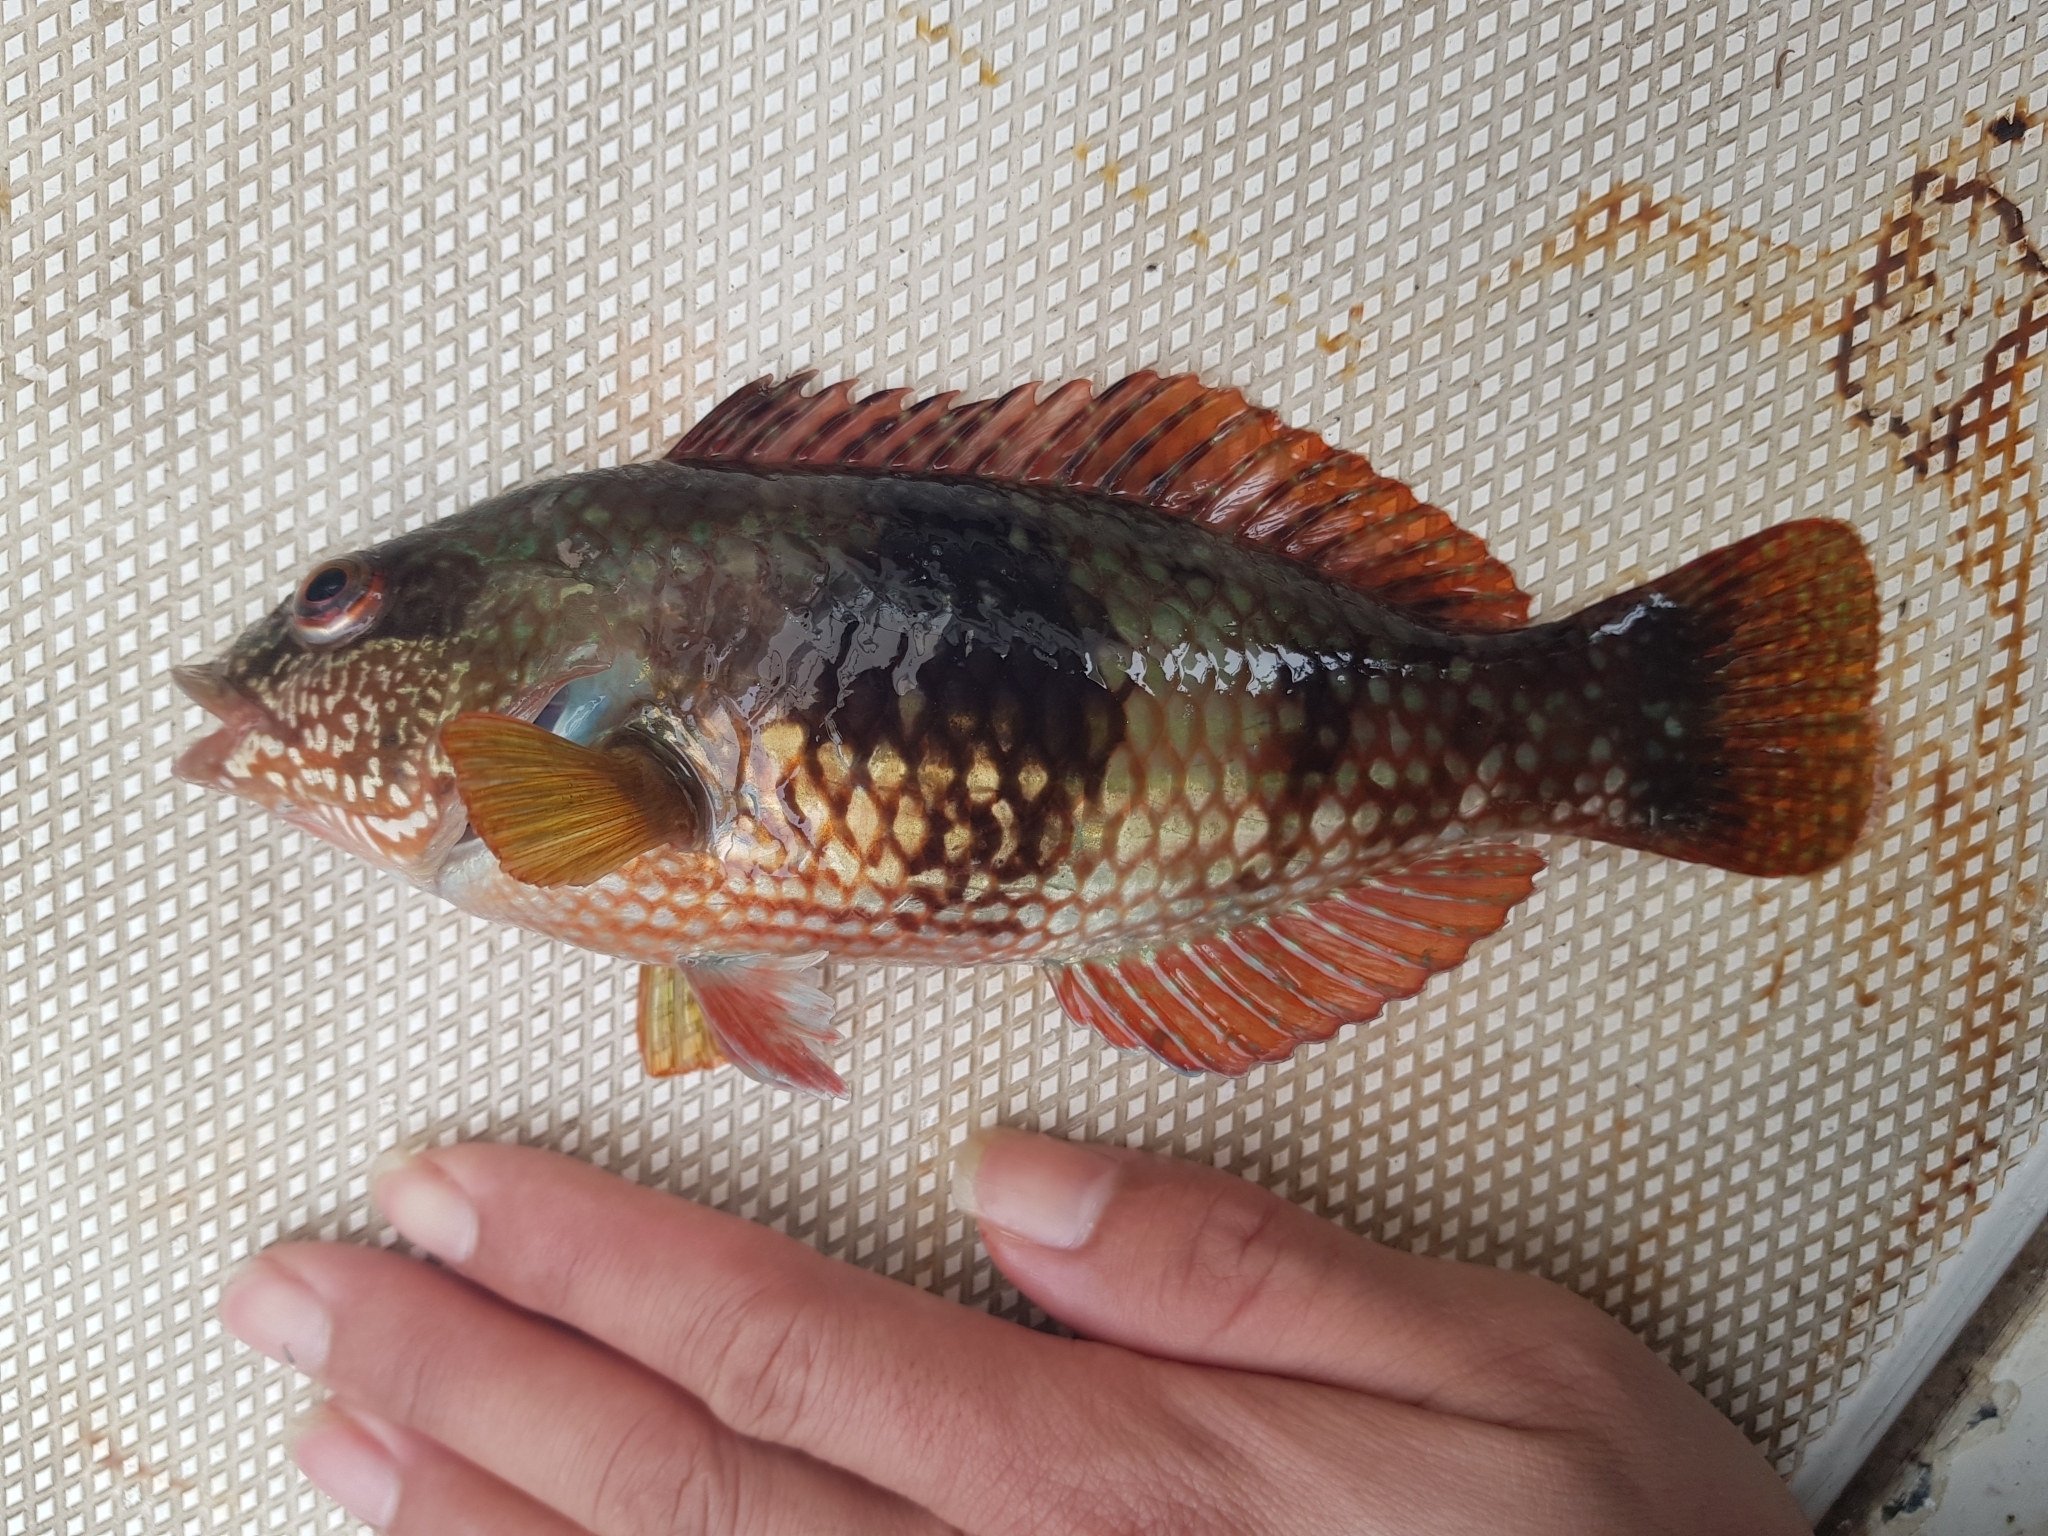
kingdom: Animalia
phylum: Chordata
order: Perciformes
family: Labridae
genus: Notolabrus
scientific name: Notolabrus tetricus
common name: Blue-throated parrotfish
